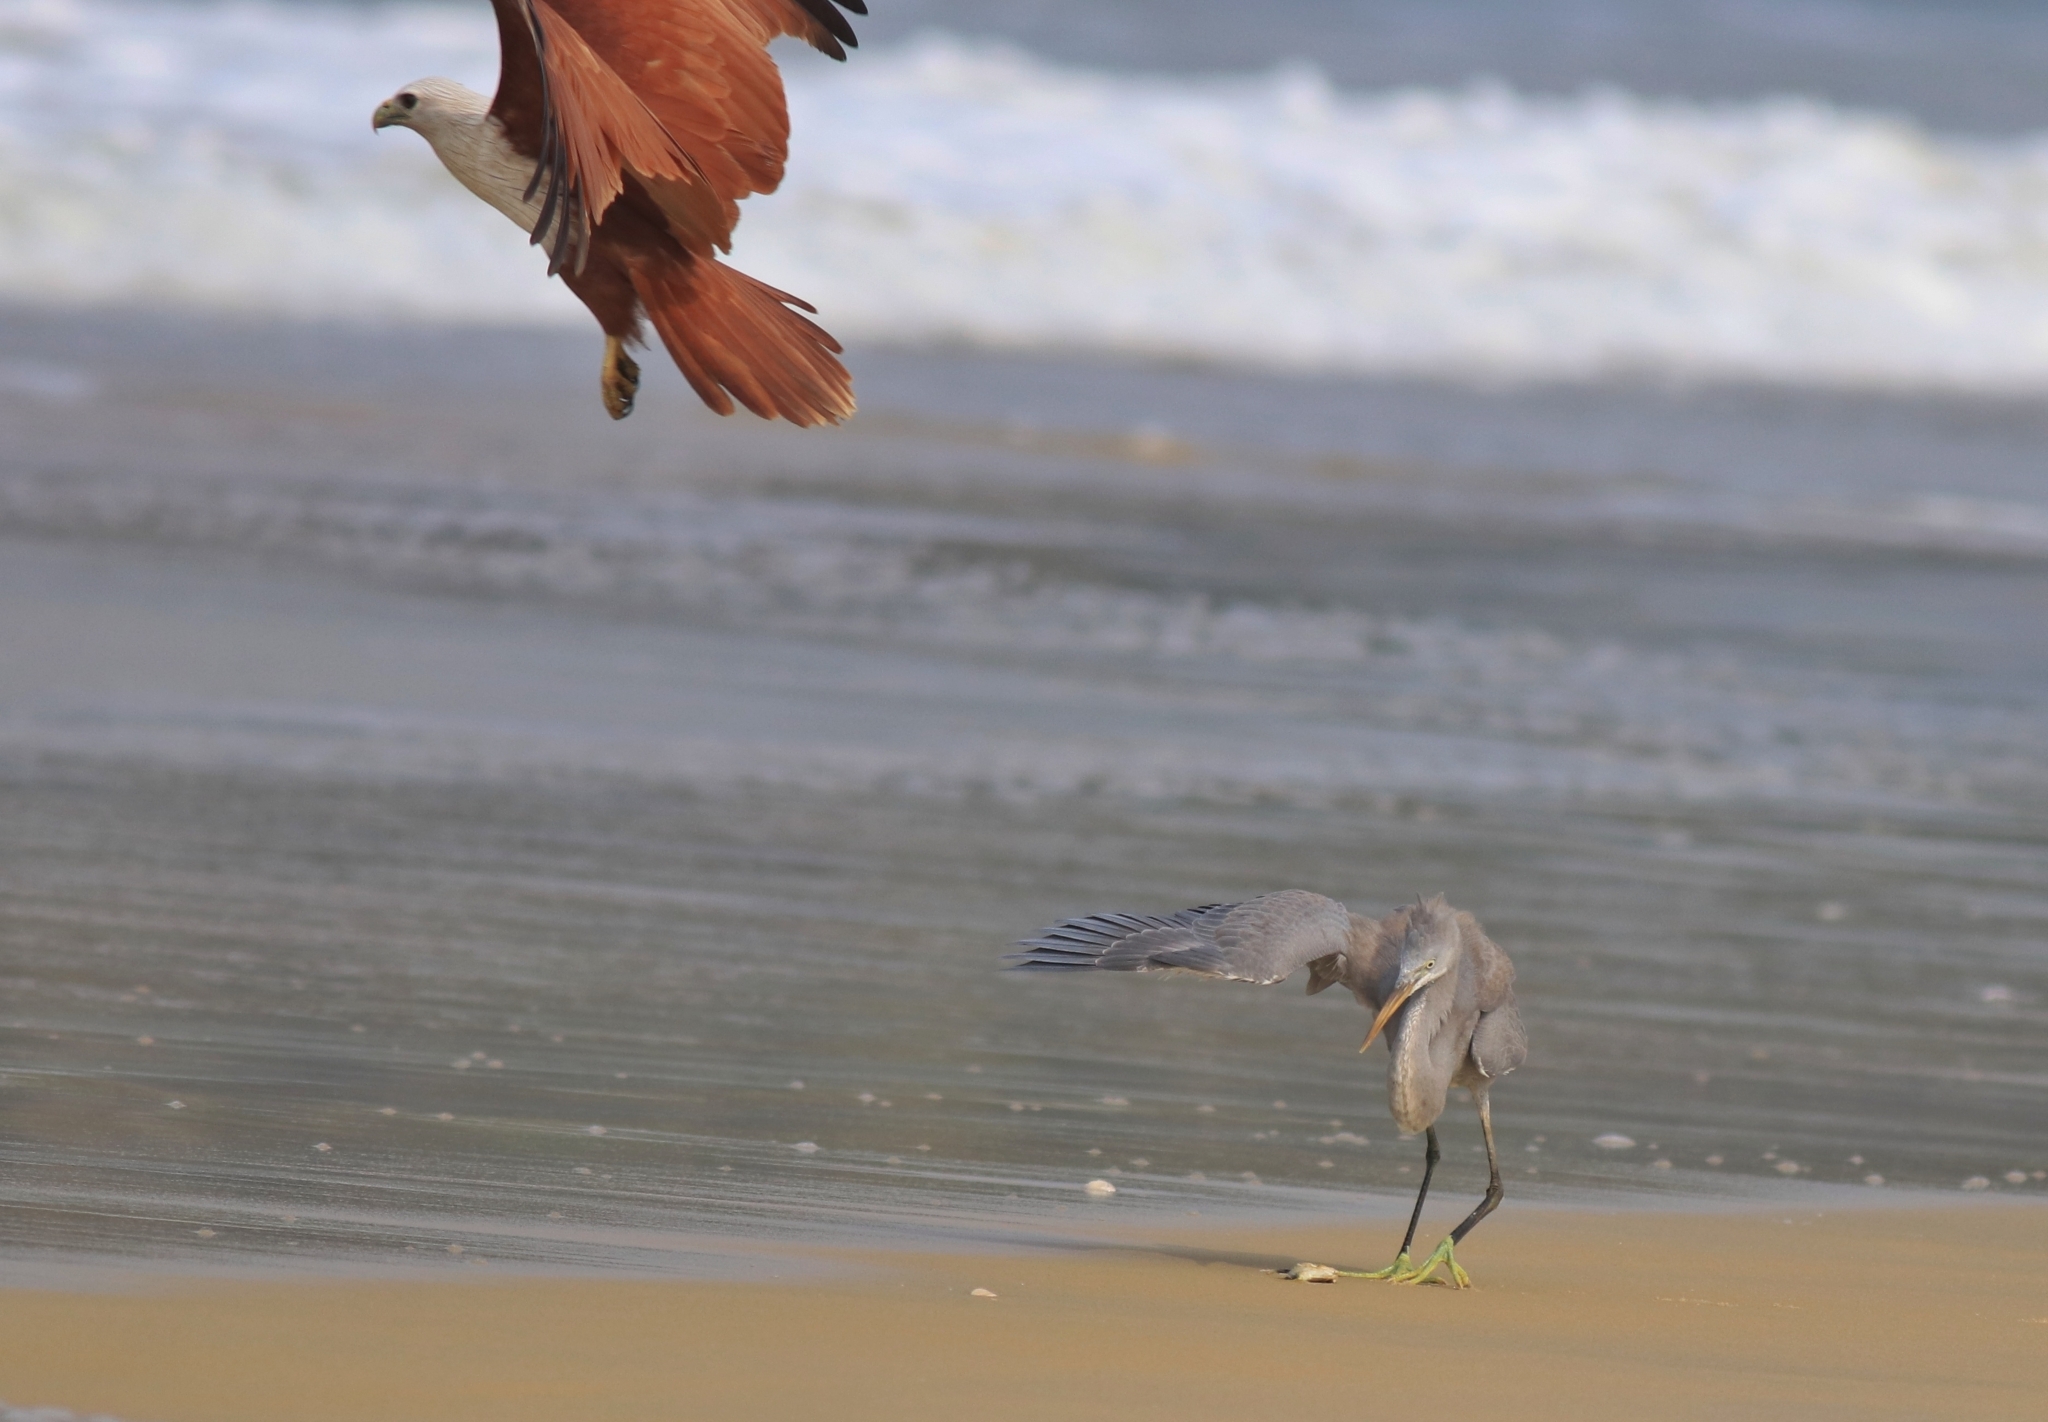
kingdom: Animalia
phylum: Chordata
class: Aves
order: Accipitriformes
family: Accipitridae
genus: Haliastur
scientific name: Haliastur indus
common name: Brahminy kite
